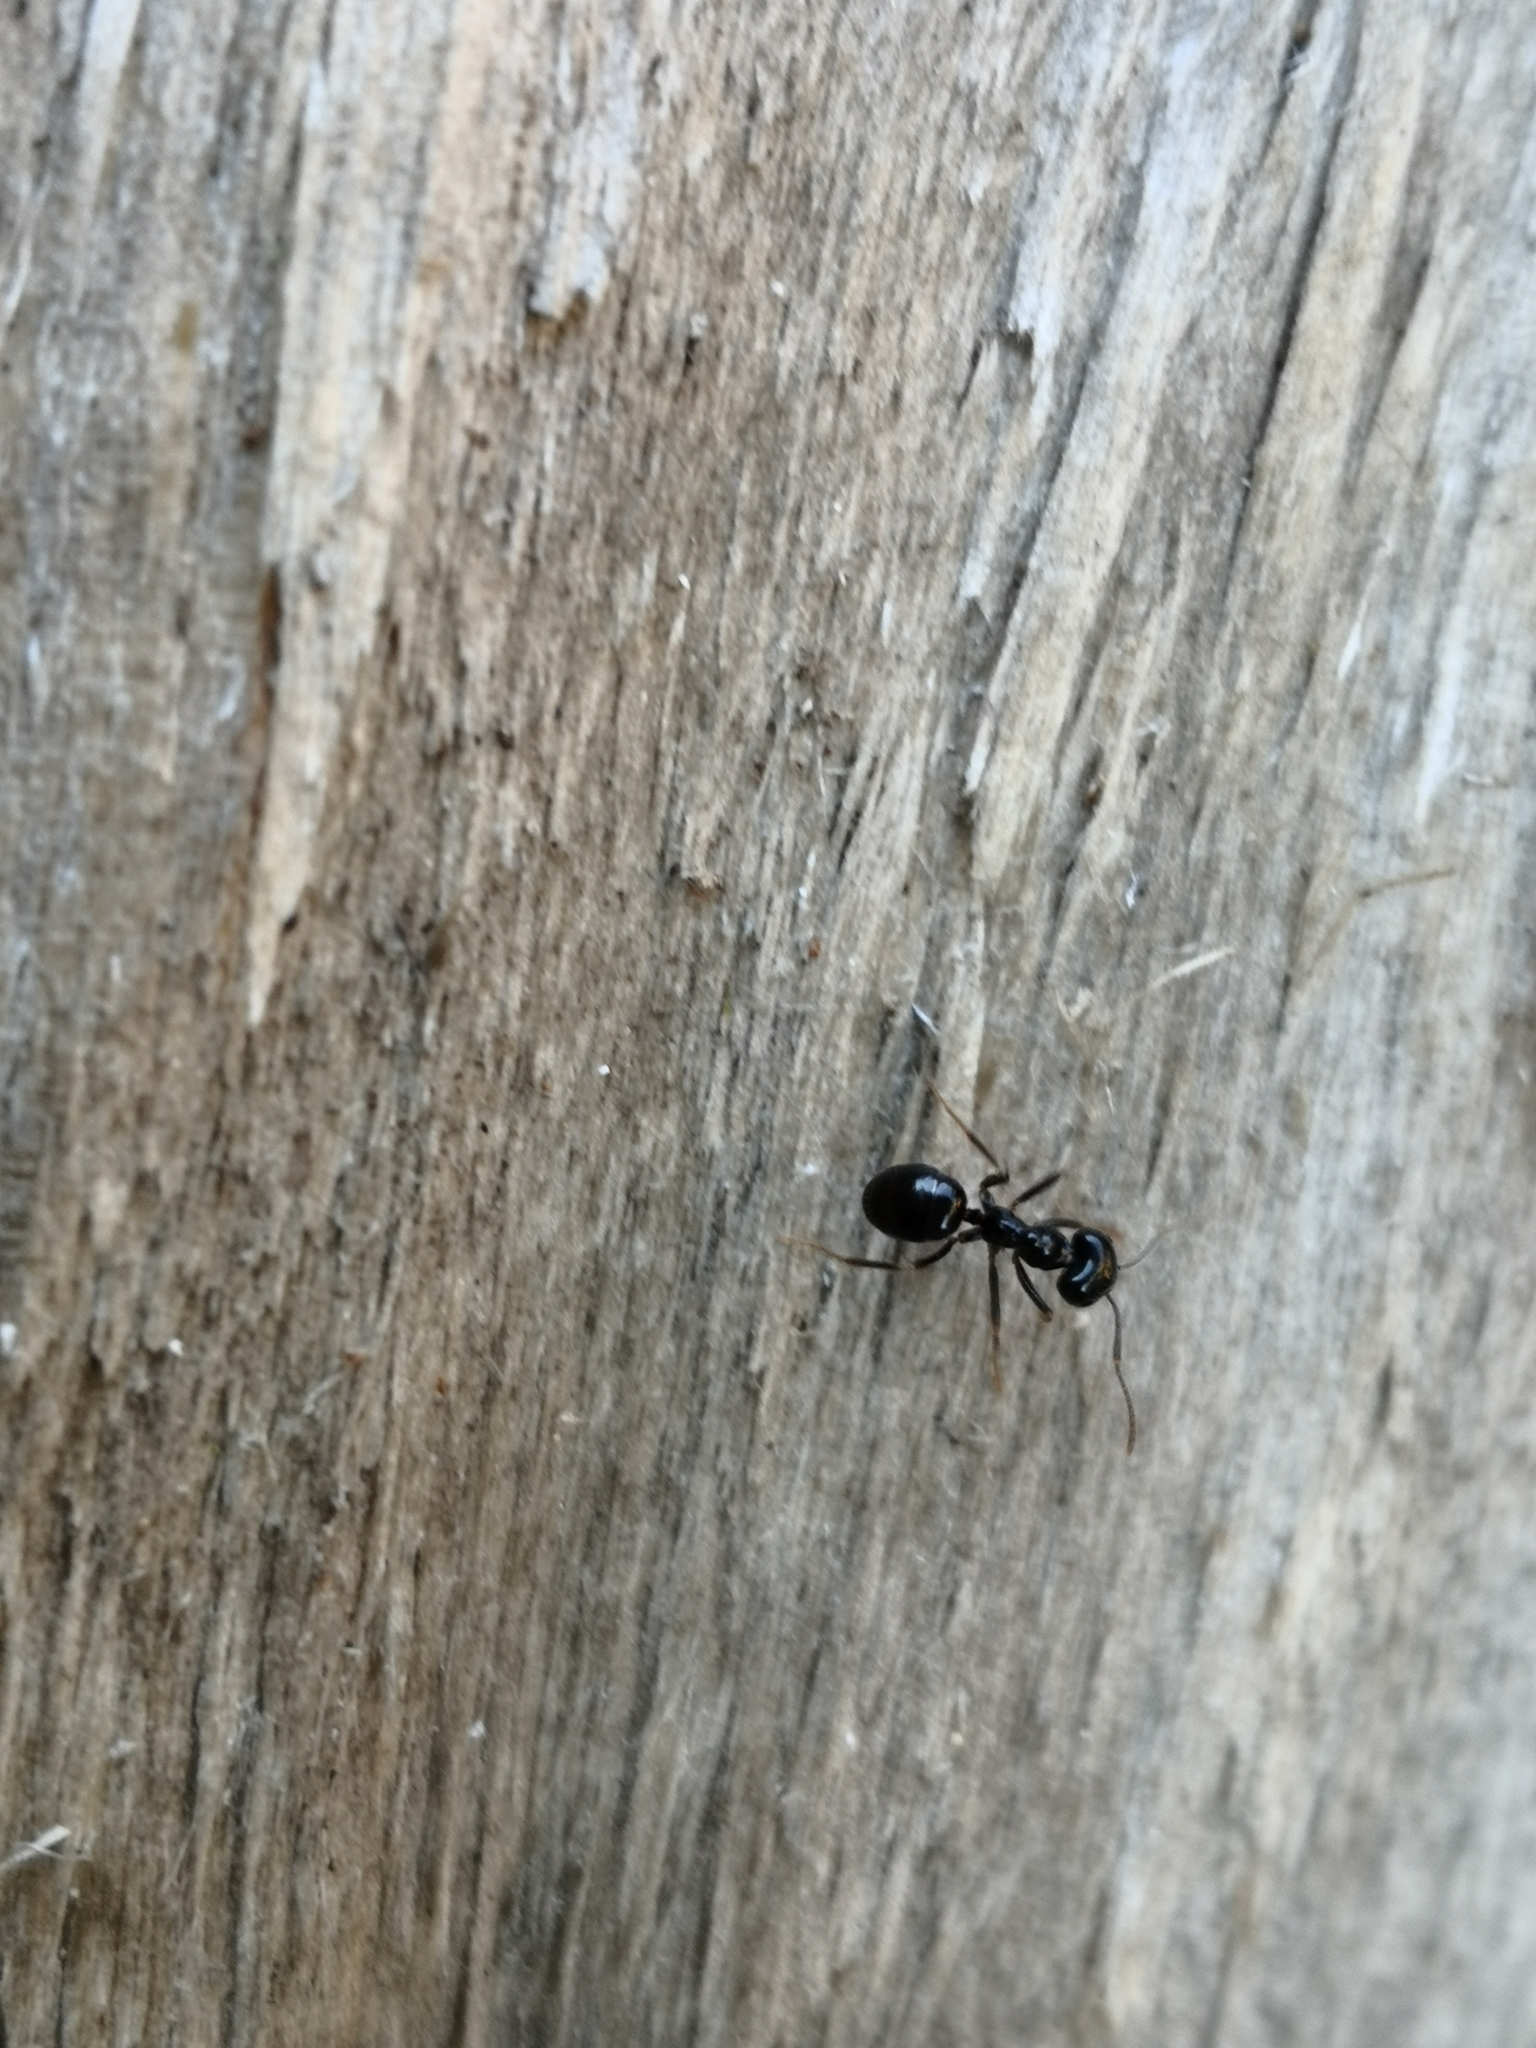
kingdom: Animalia
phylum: Arthropoda
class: Insecta
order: Hymenoptera
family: Formicidae
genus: Lasius
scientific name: Lasius fuliginosus
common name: Jet ant
